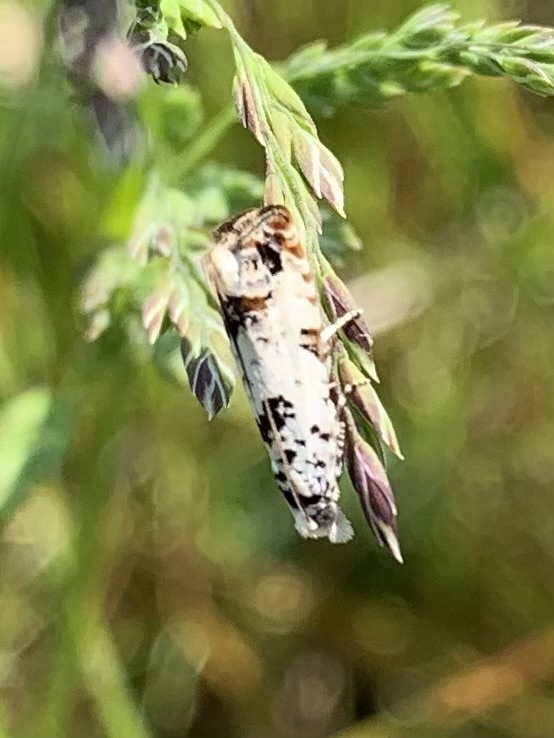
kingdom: Animalia
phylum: Arthropoda
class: Insecta
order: Lepidoptera
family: Tortricidae
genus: Eucosma
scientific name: Eucosma campoliliana
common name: Marbled bell
